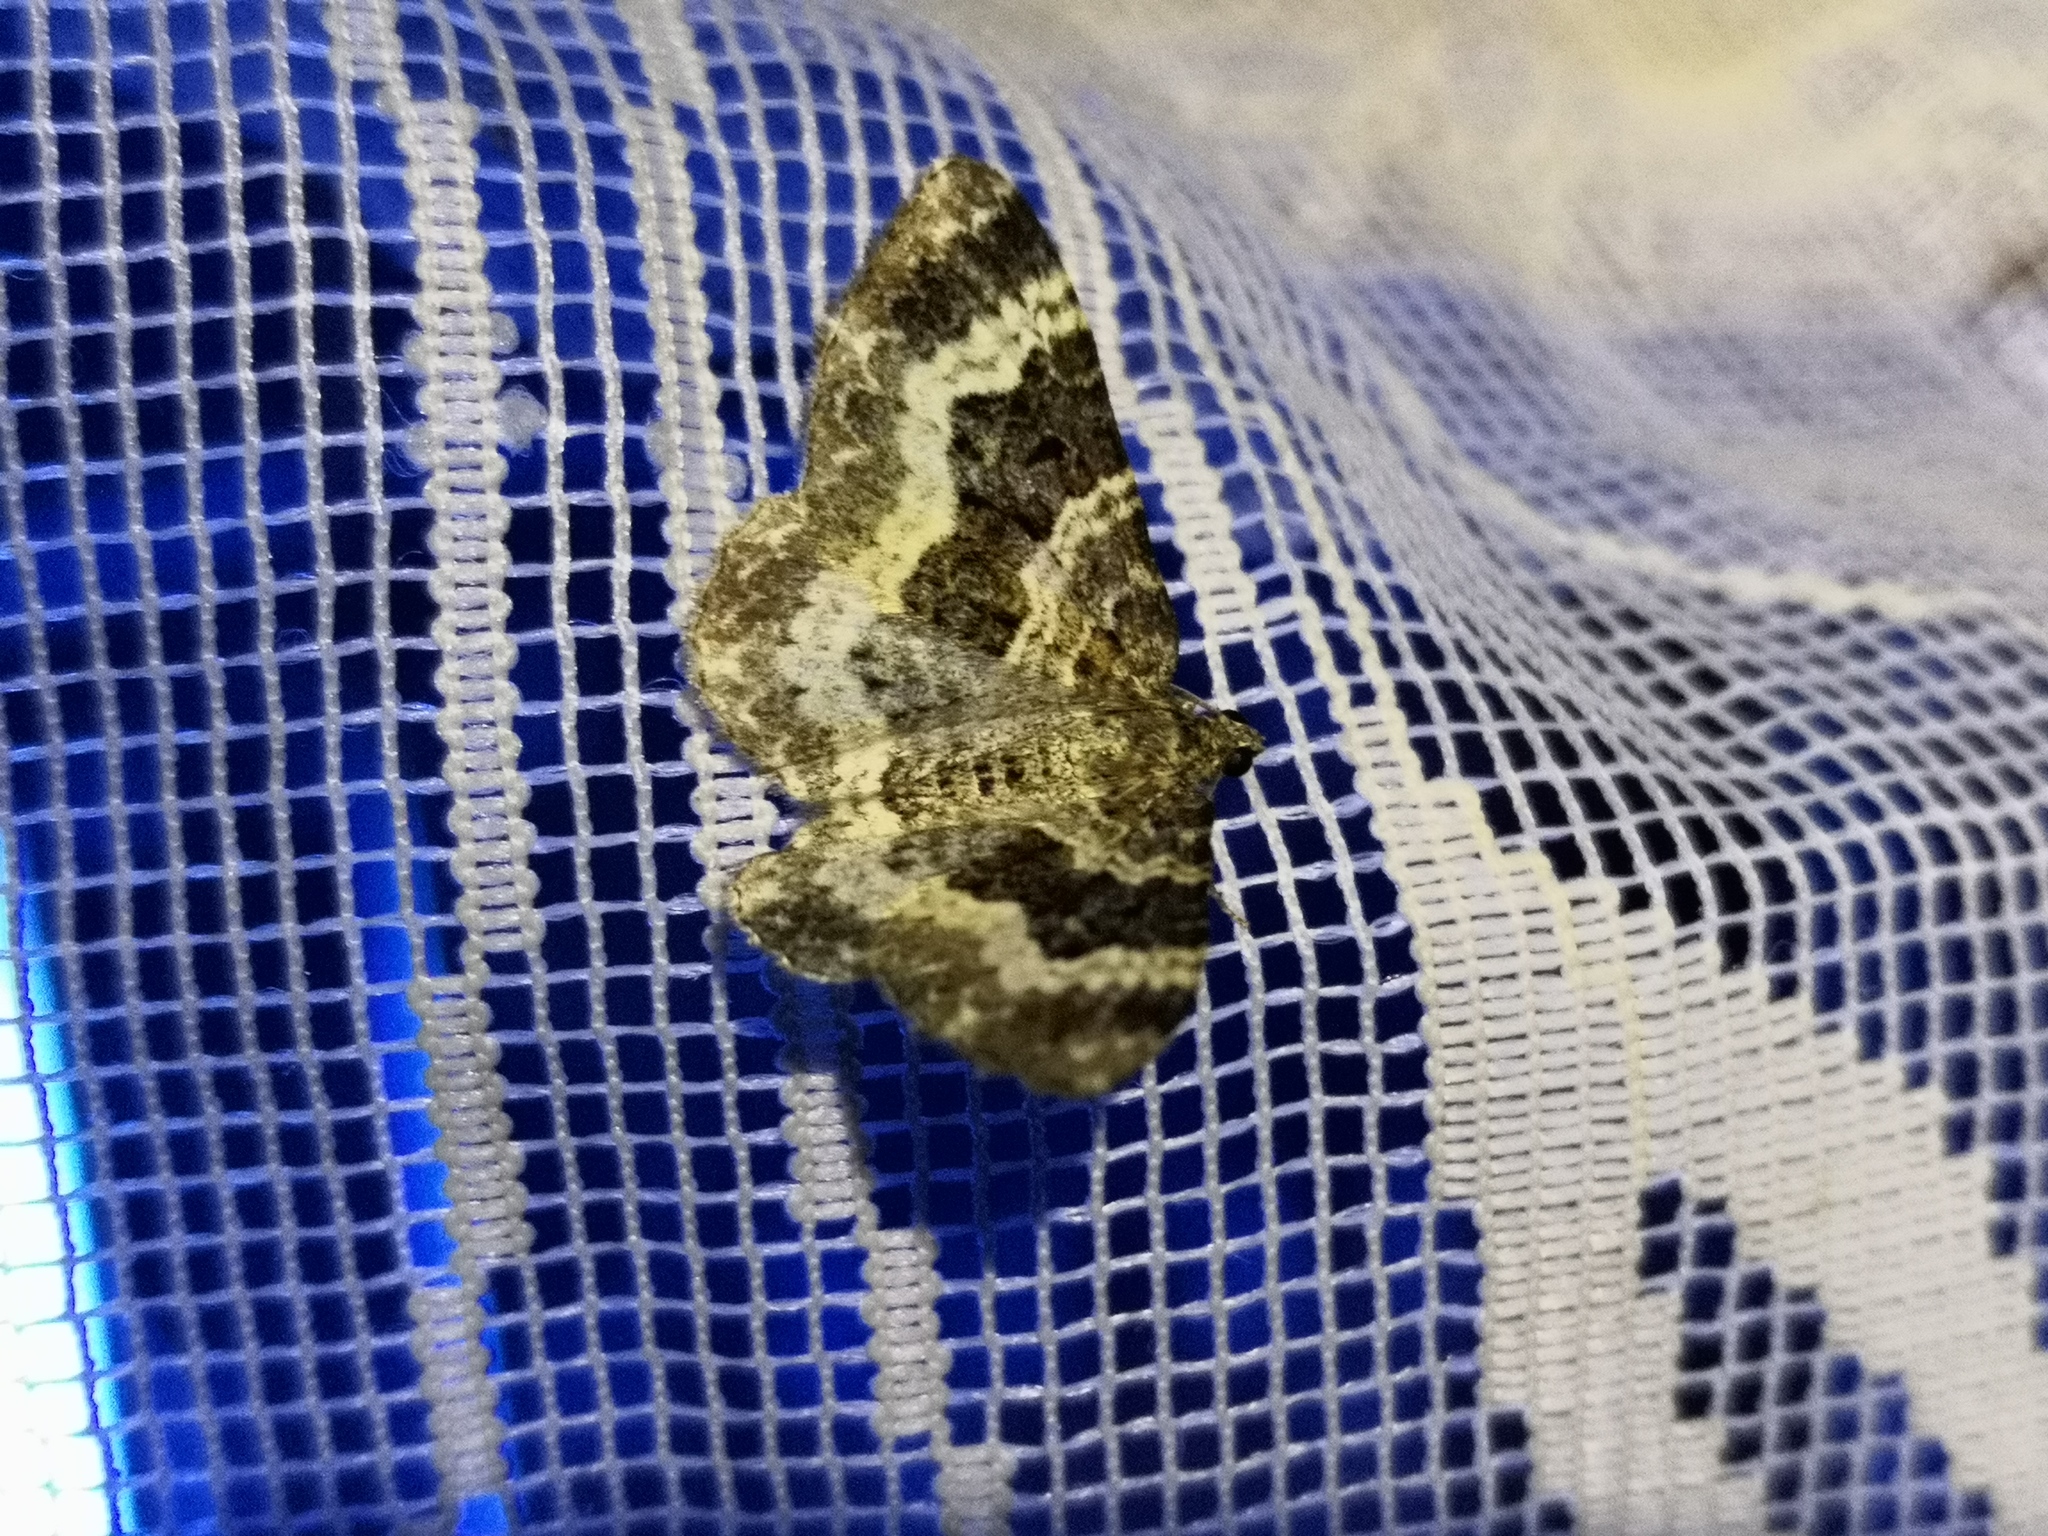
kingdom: Animalia
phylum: Arthropoda
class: Insecta
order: Lepidoptera
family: Geometridae
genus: Epirrhoe
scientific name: Epirrhoe alternata
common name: Common carpet
